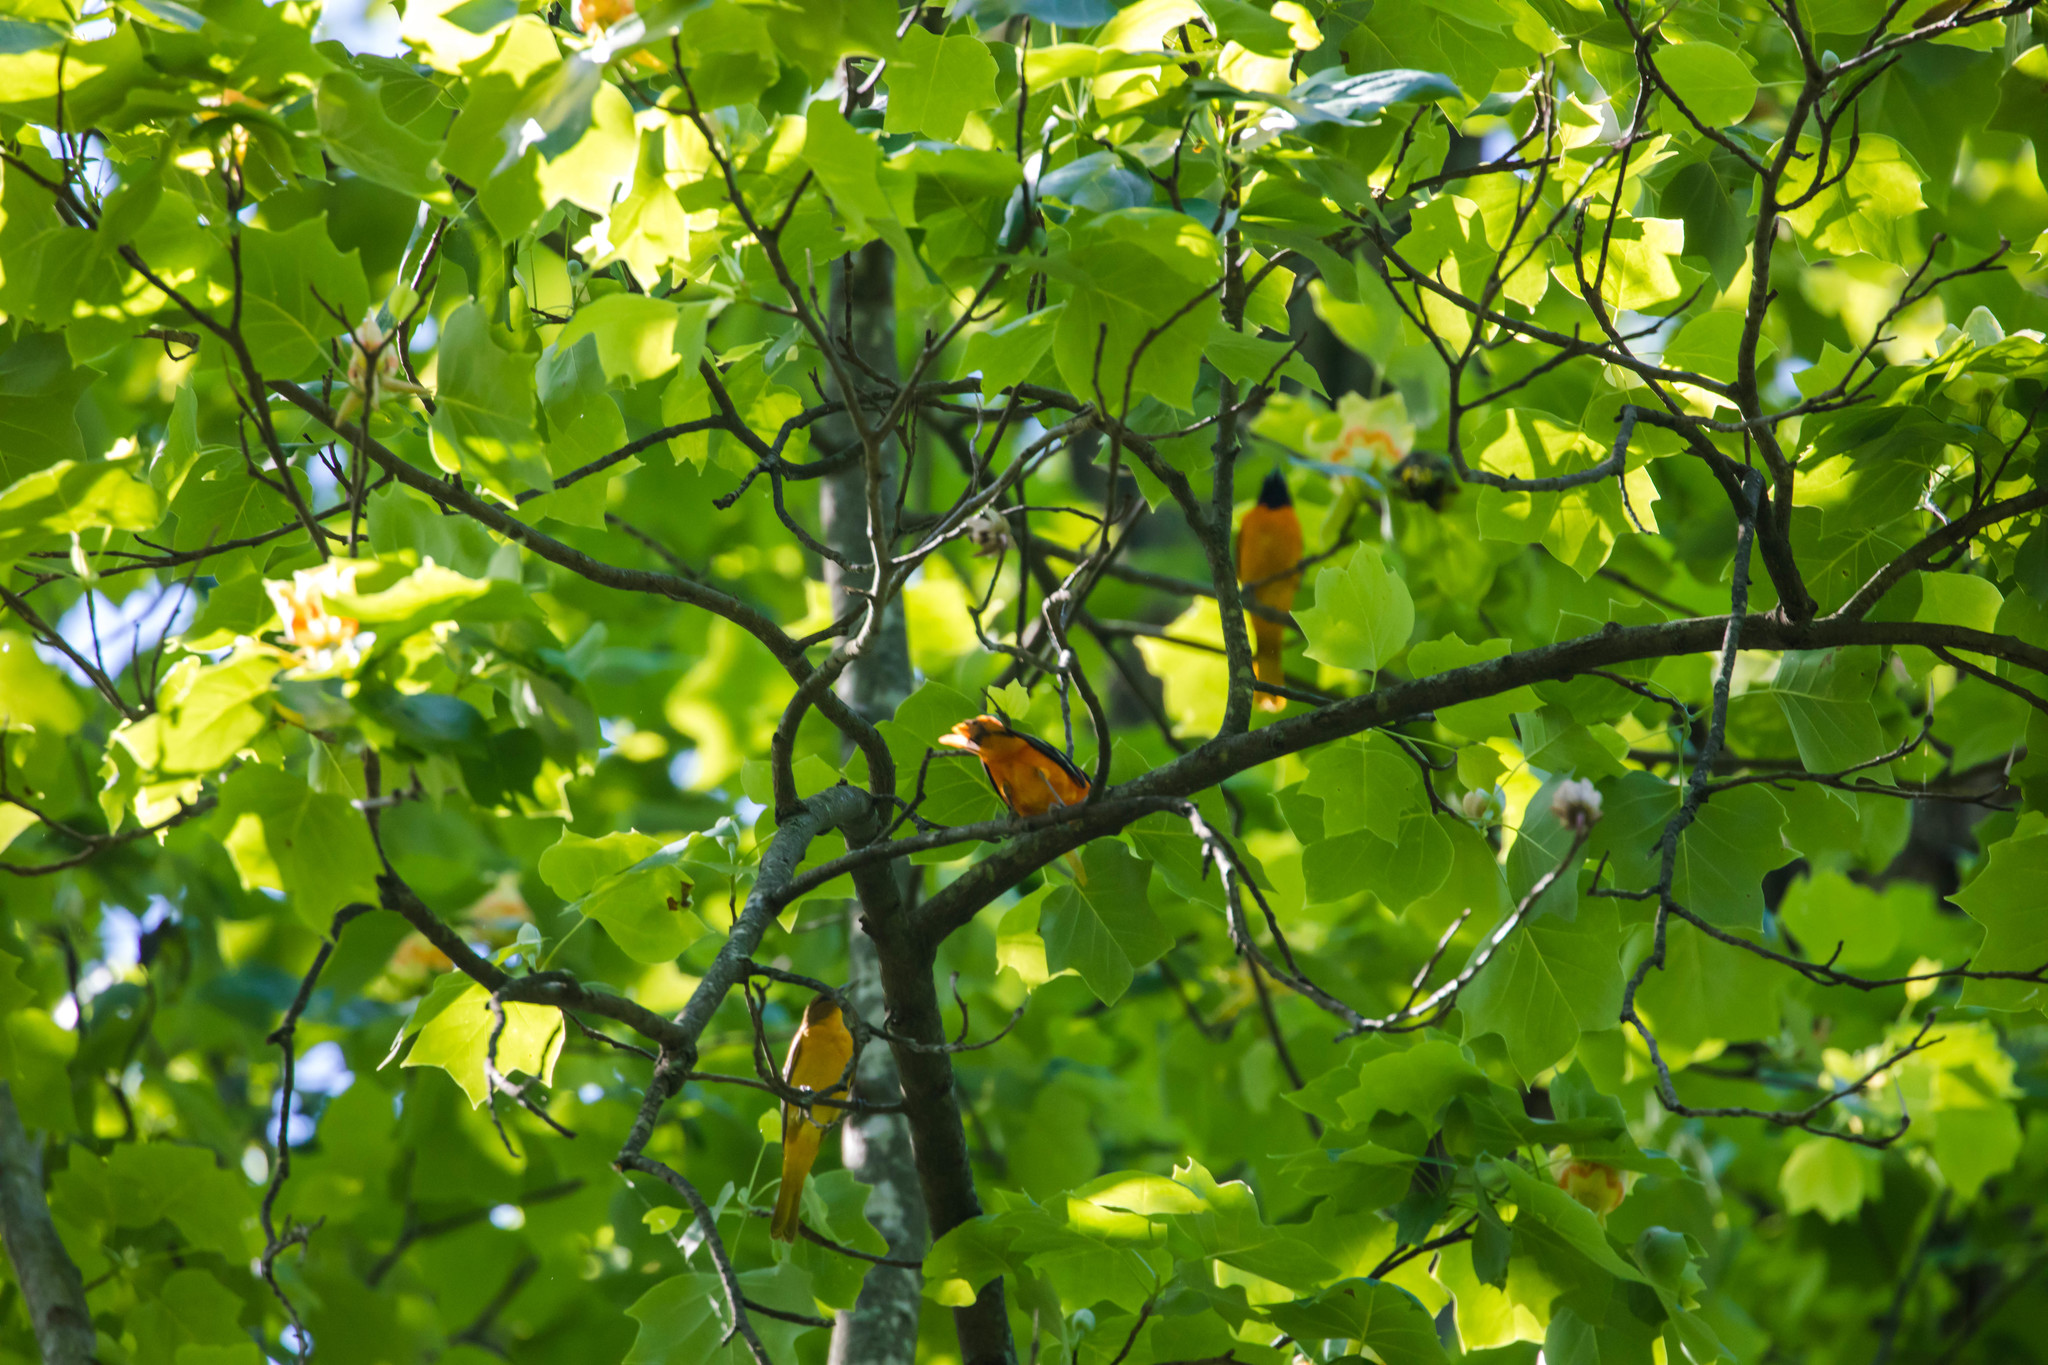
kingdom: Animalia
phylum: Chordata
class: Aves
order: Passeriformes
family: Icteridae
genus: Icterus
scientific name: Icterus galbula
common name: Baltimore oriole
